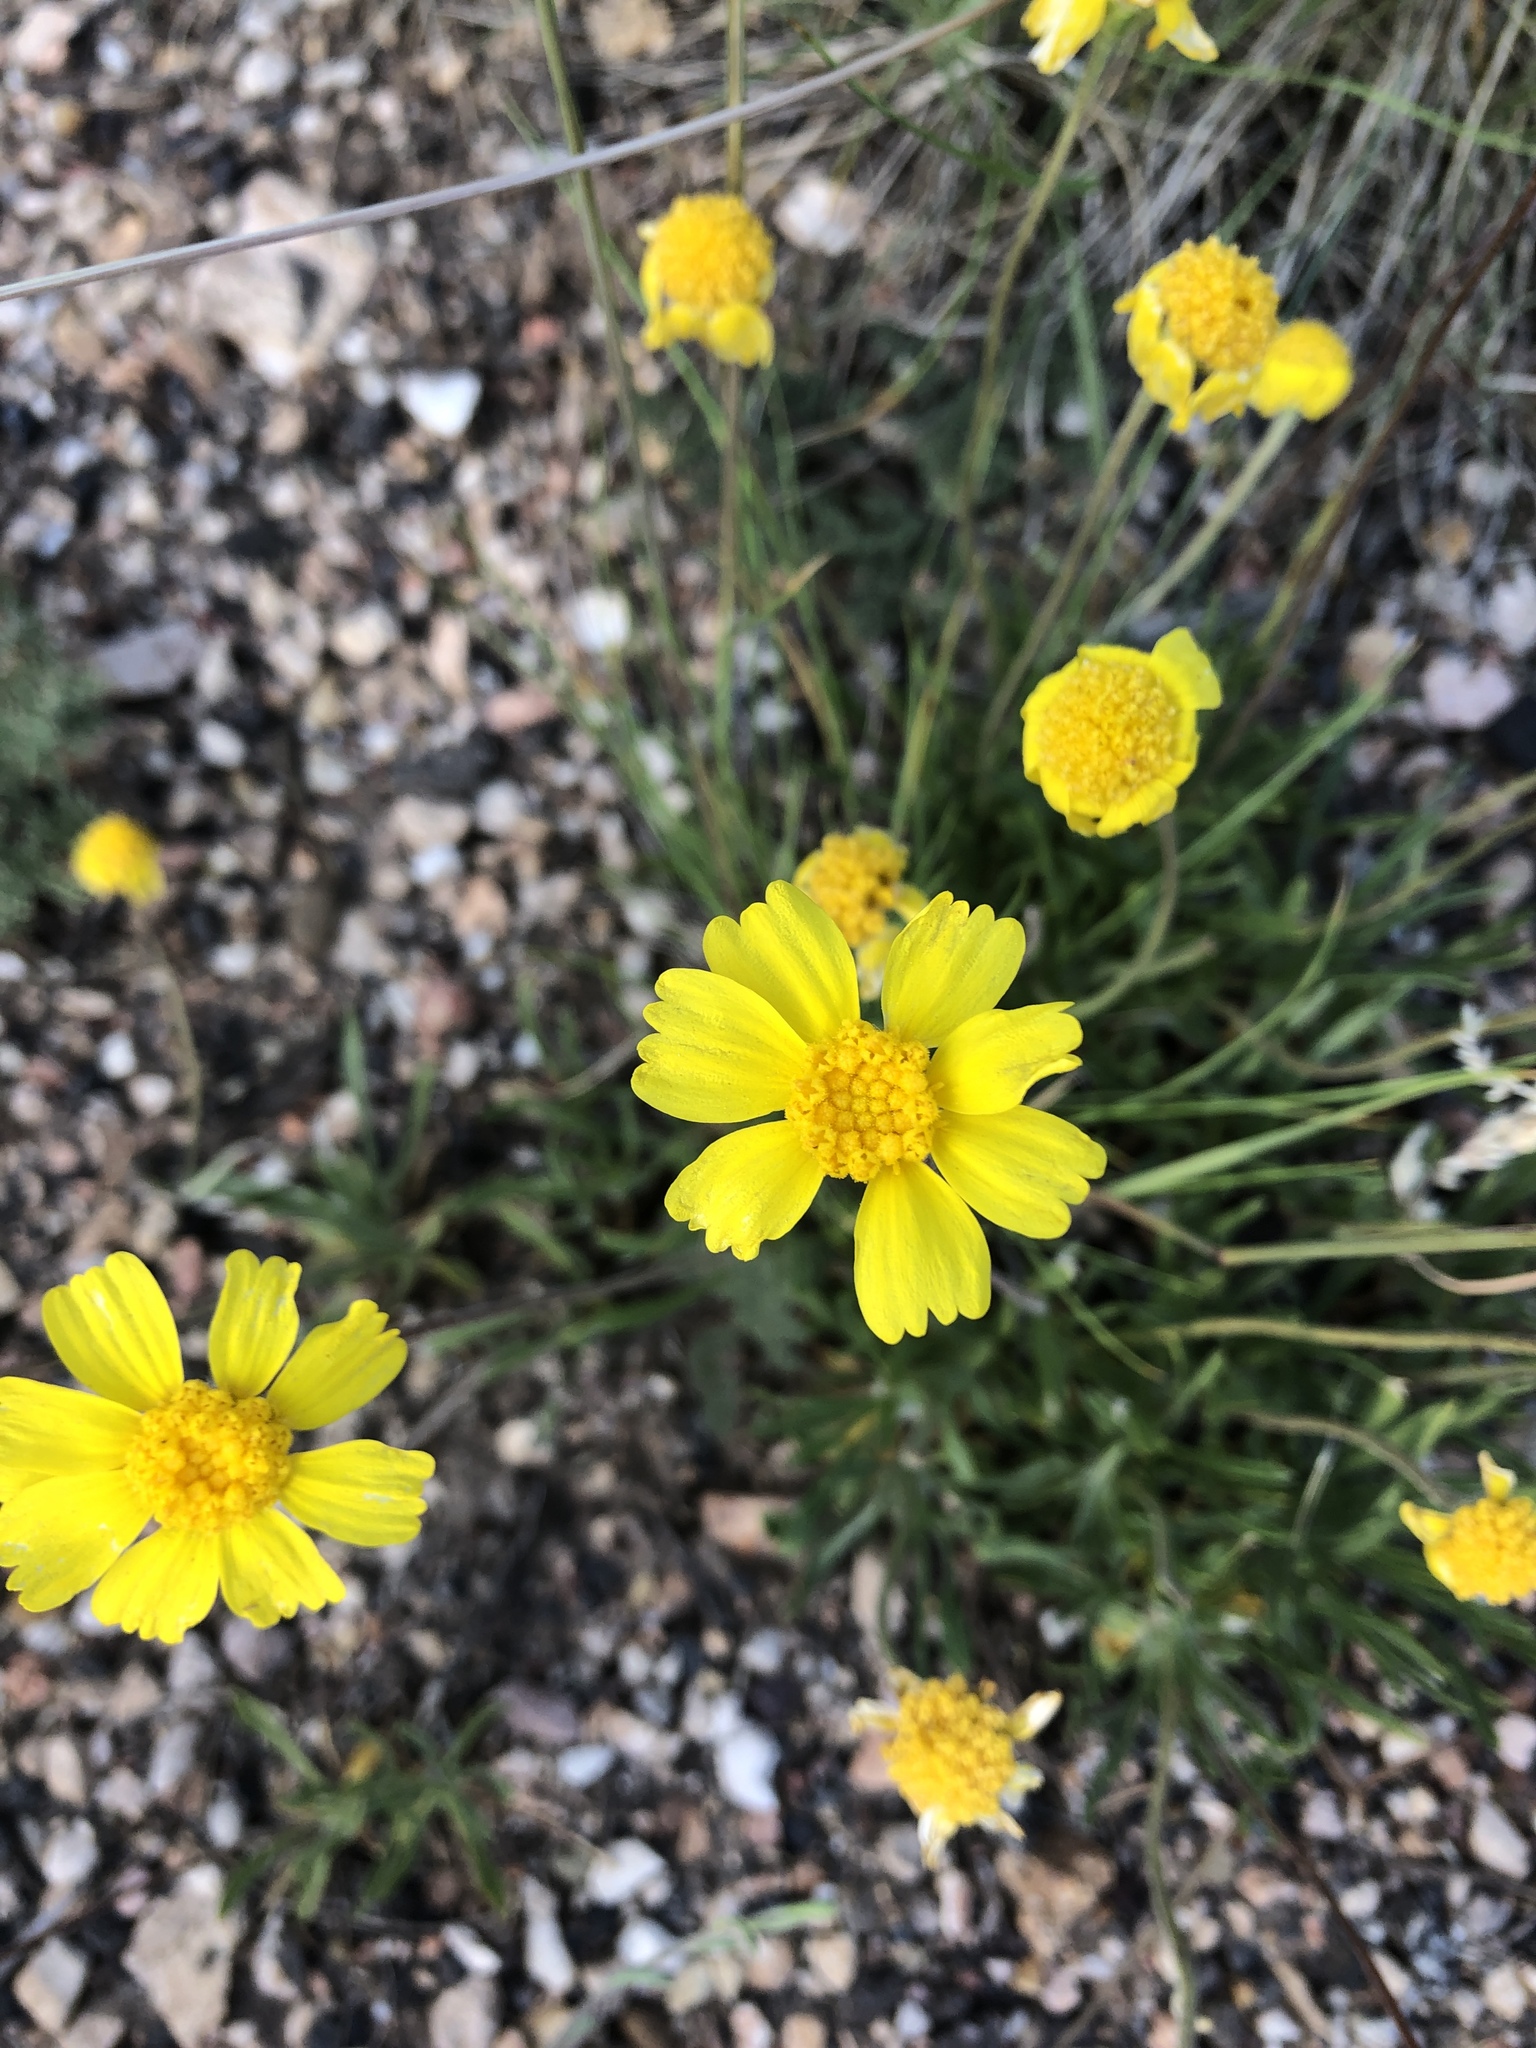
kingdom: Plantae
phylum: Tracheophyta
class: Magnoliopsida
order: Asterales
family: Asteraceae
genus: Tetraneuris
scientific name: Tetraneuris acaulis
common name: Butte marigold
